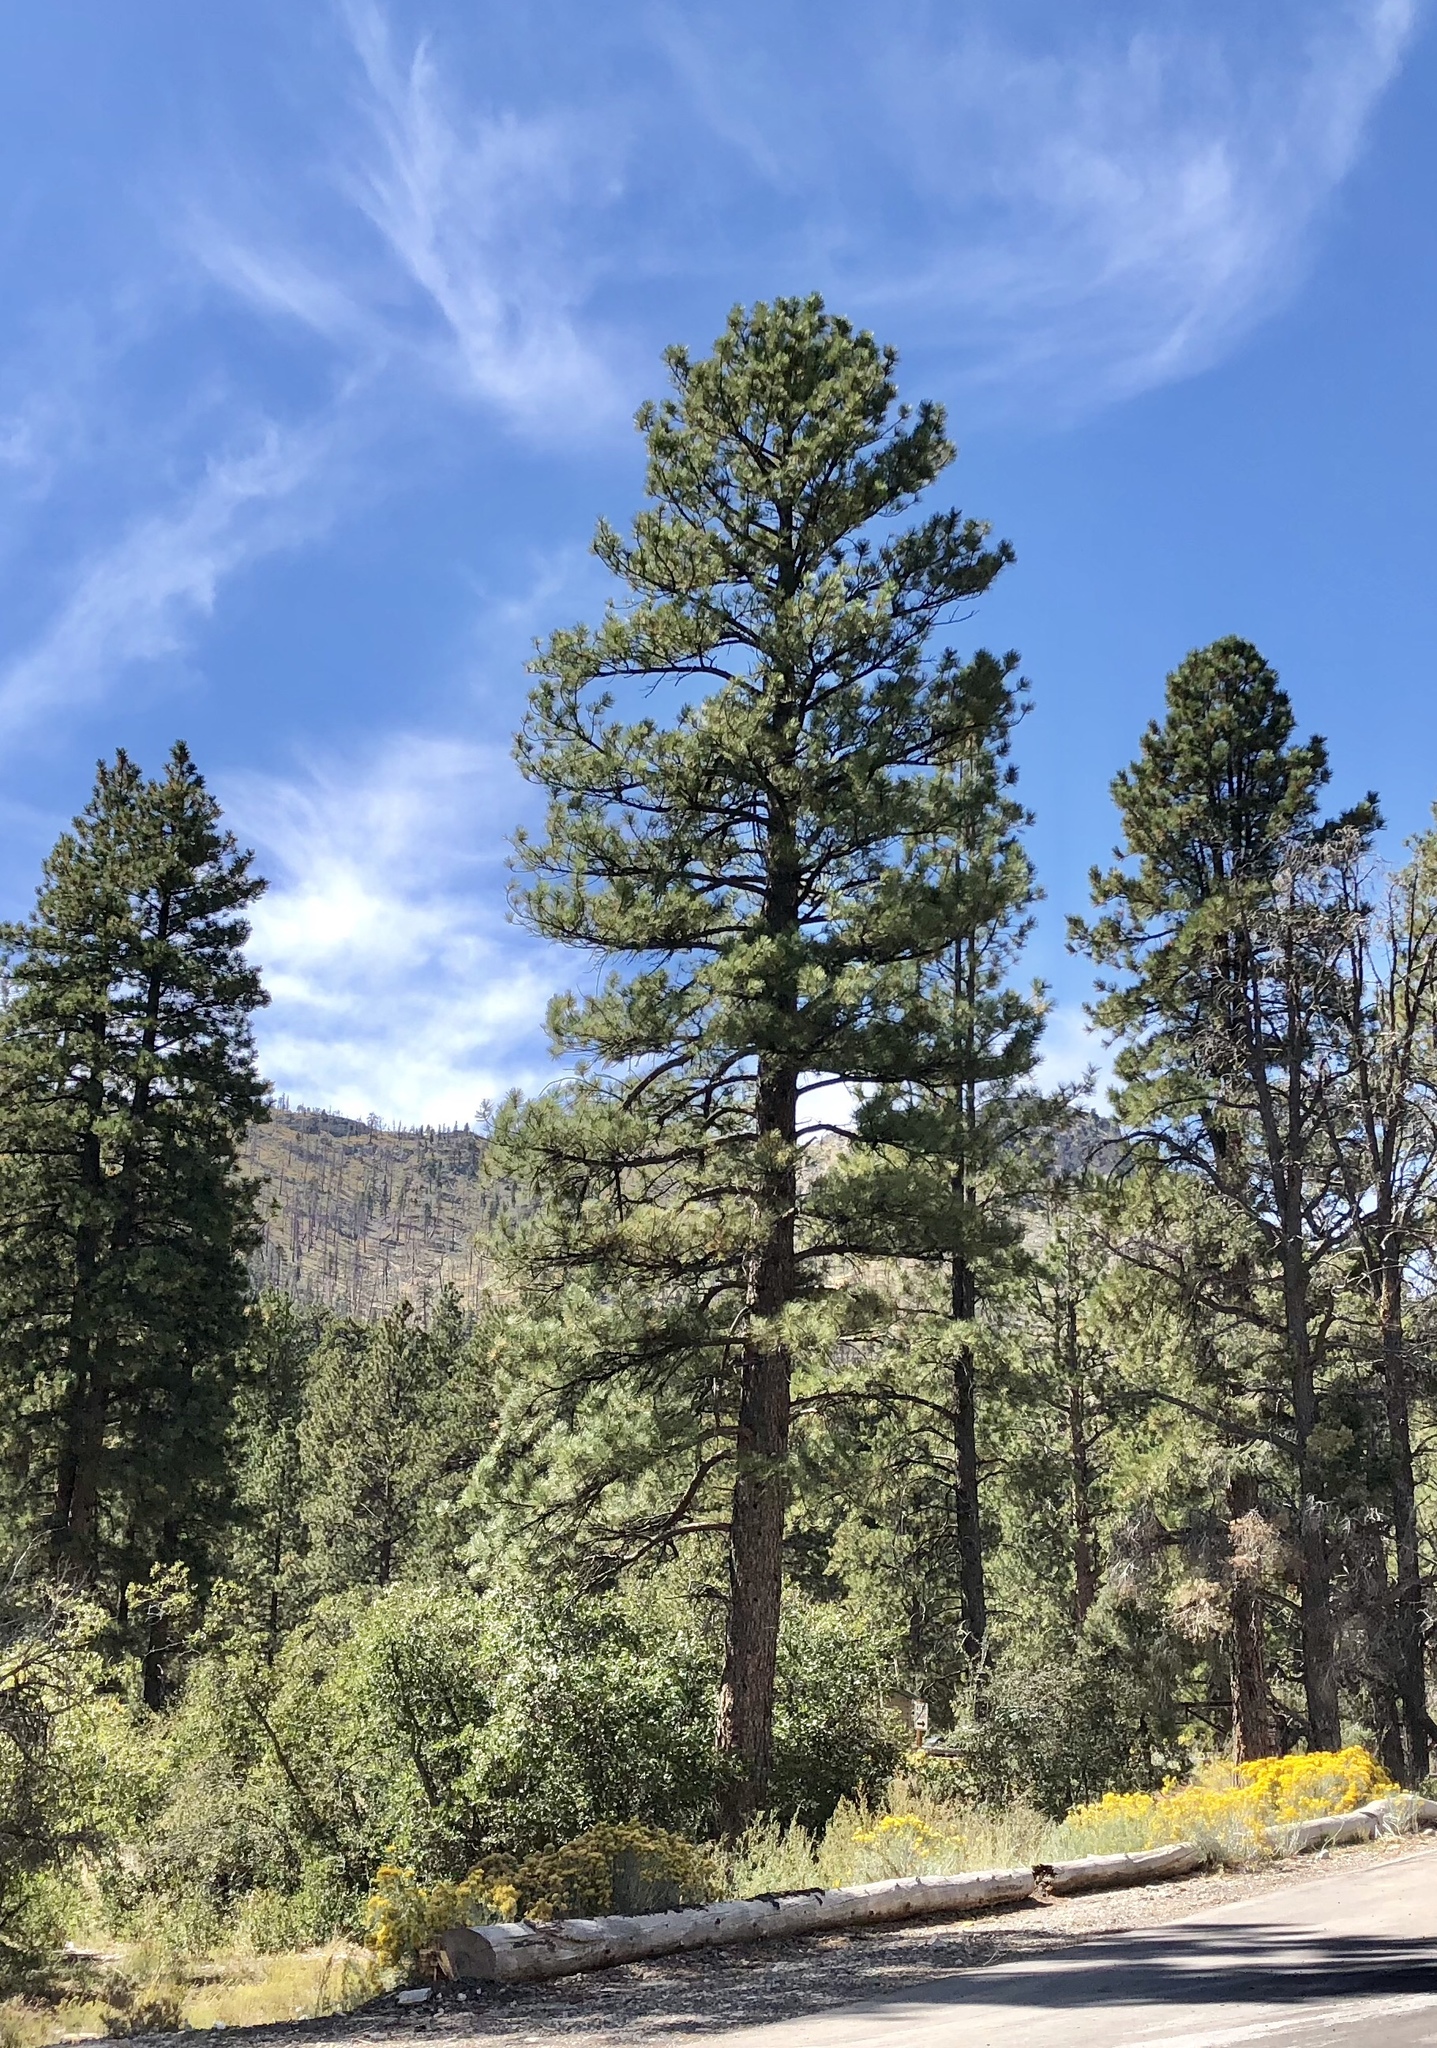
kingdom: Plantae
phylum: Tracheophyta
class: Pinopsida
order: Pinales
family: Pinaceae
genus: Pinus
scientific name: Pinus ponderosa
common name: Western yellow-pine
